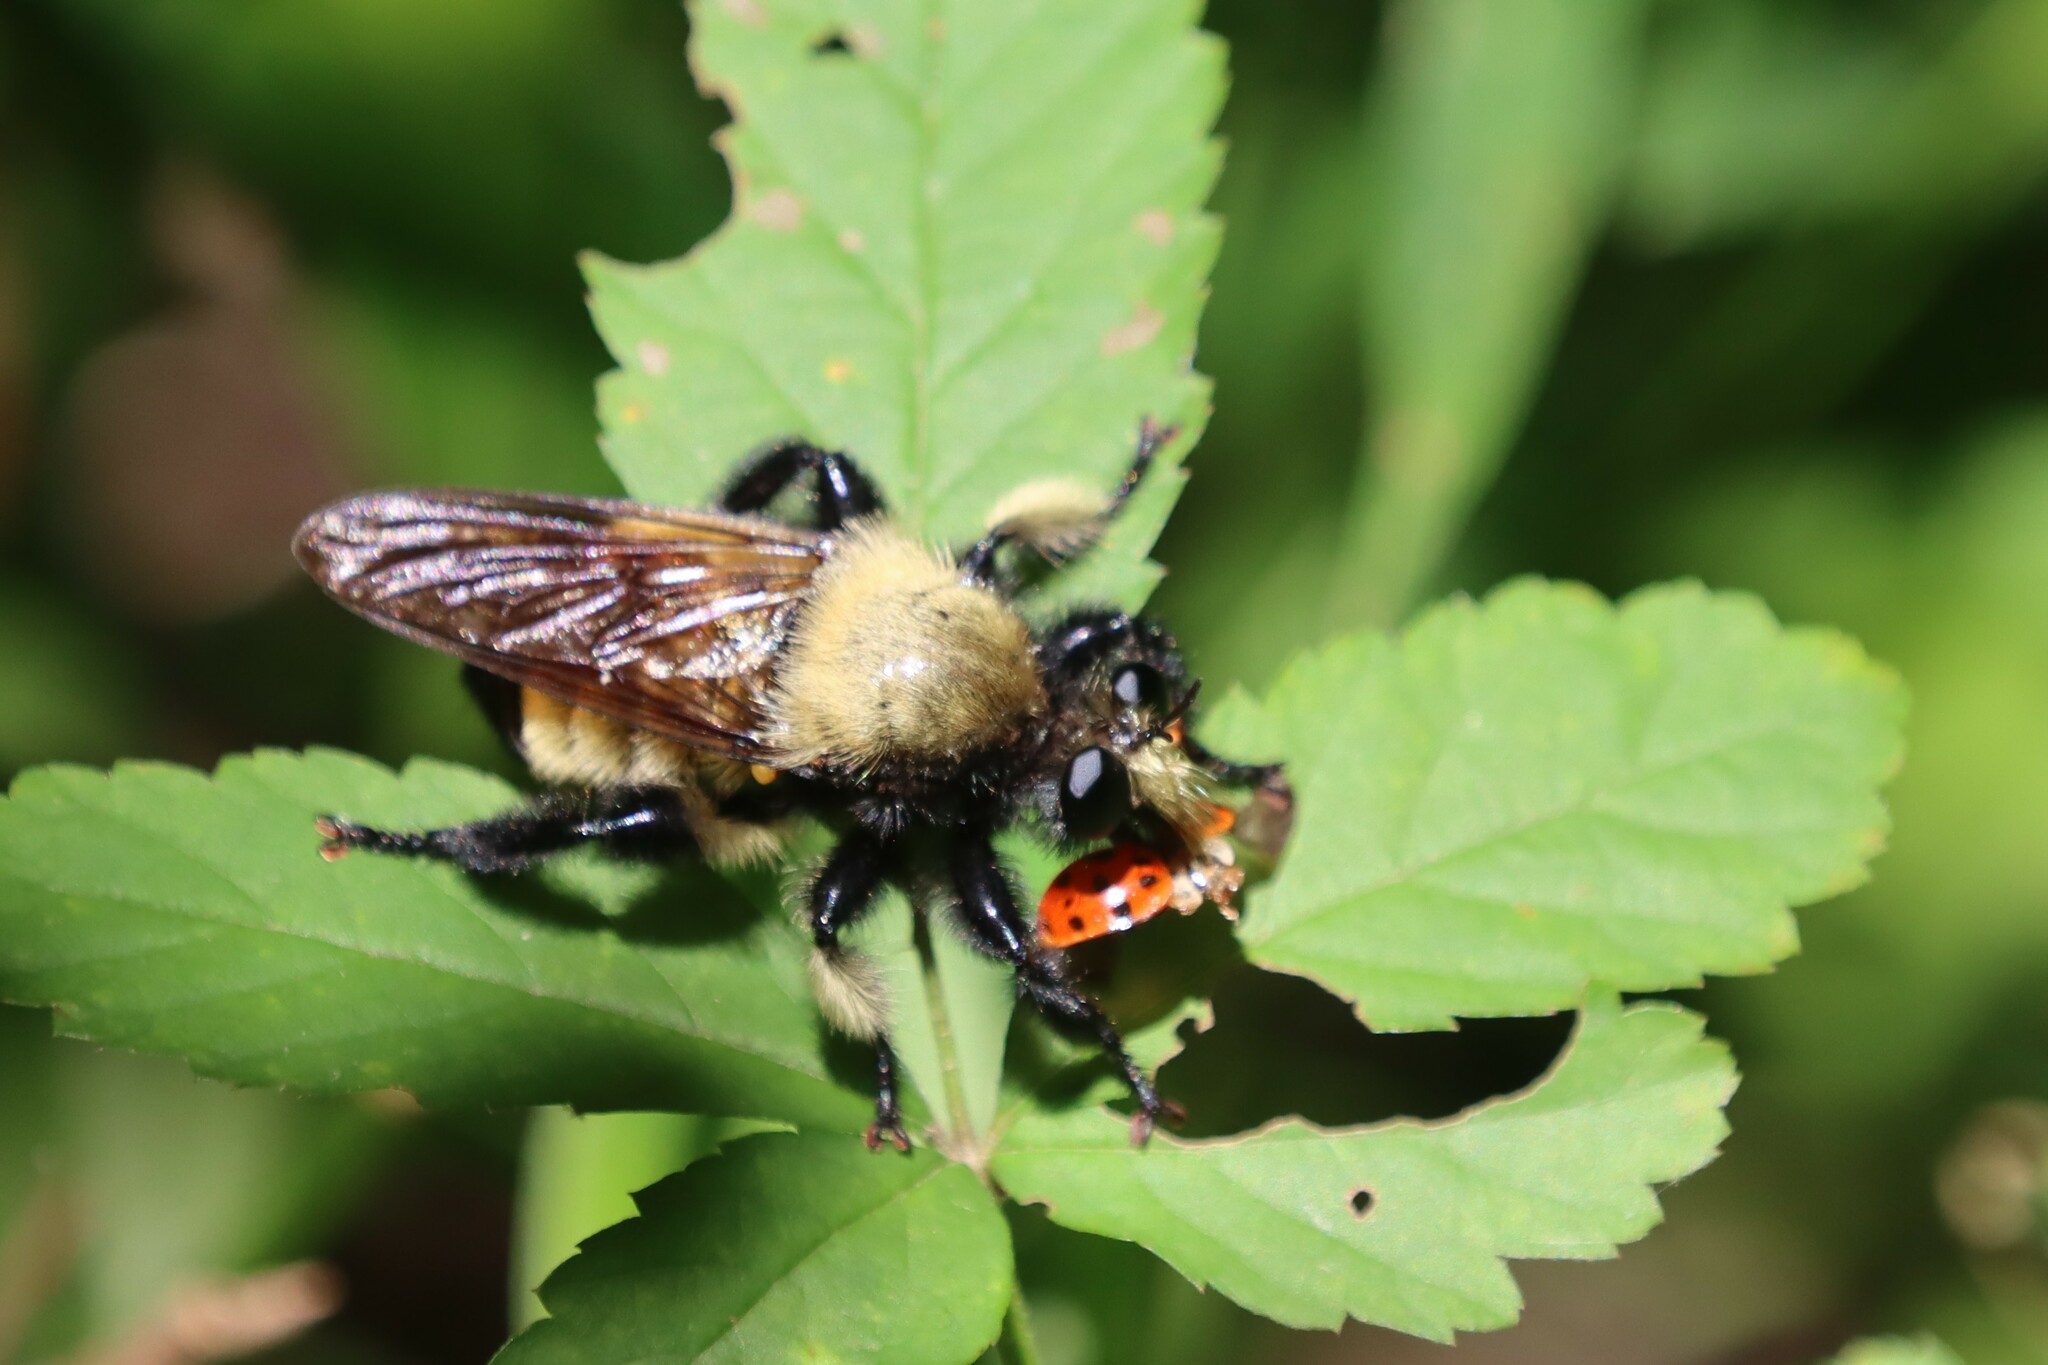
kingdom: Animalia
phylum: Arthropoda
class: Insecta
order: Diptera
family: Asilidae
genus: Laphria
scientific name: Laphria macquarti
